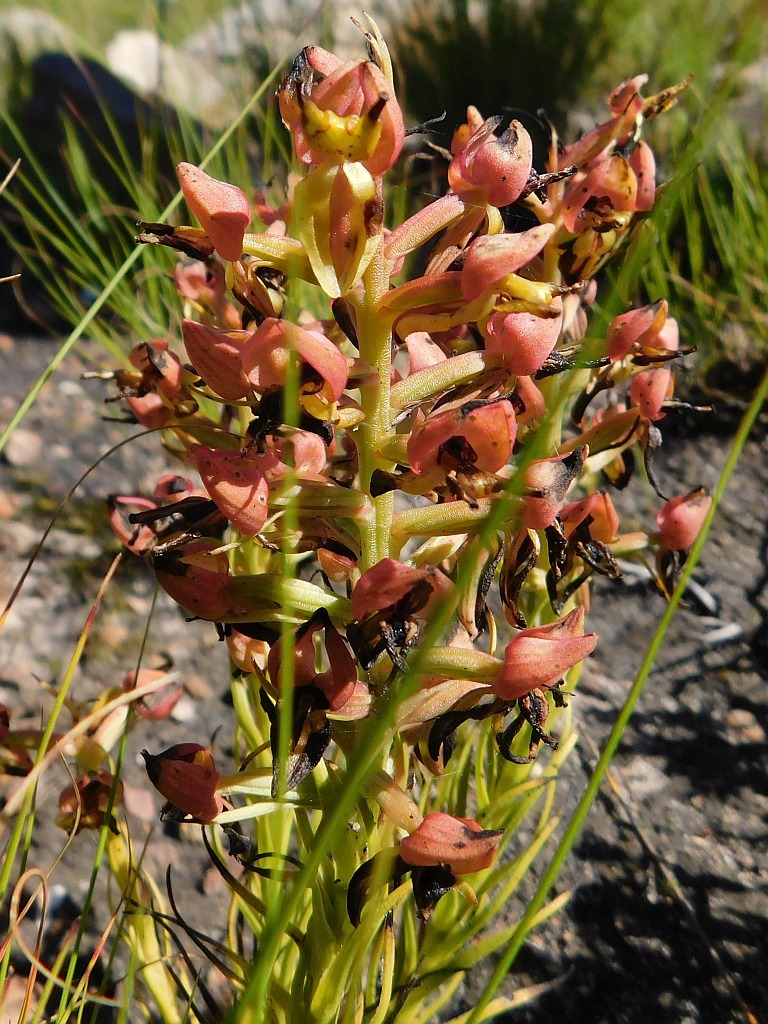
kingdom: Plantae
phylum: Tracheophyta
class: Liliopsida
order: Asparagales
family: Orchidaceae
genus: Ceratandra
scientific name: Ceratandra atrata
